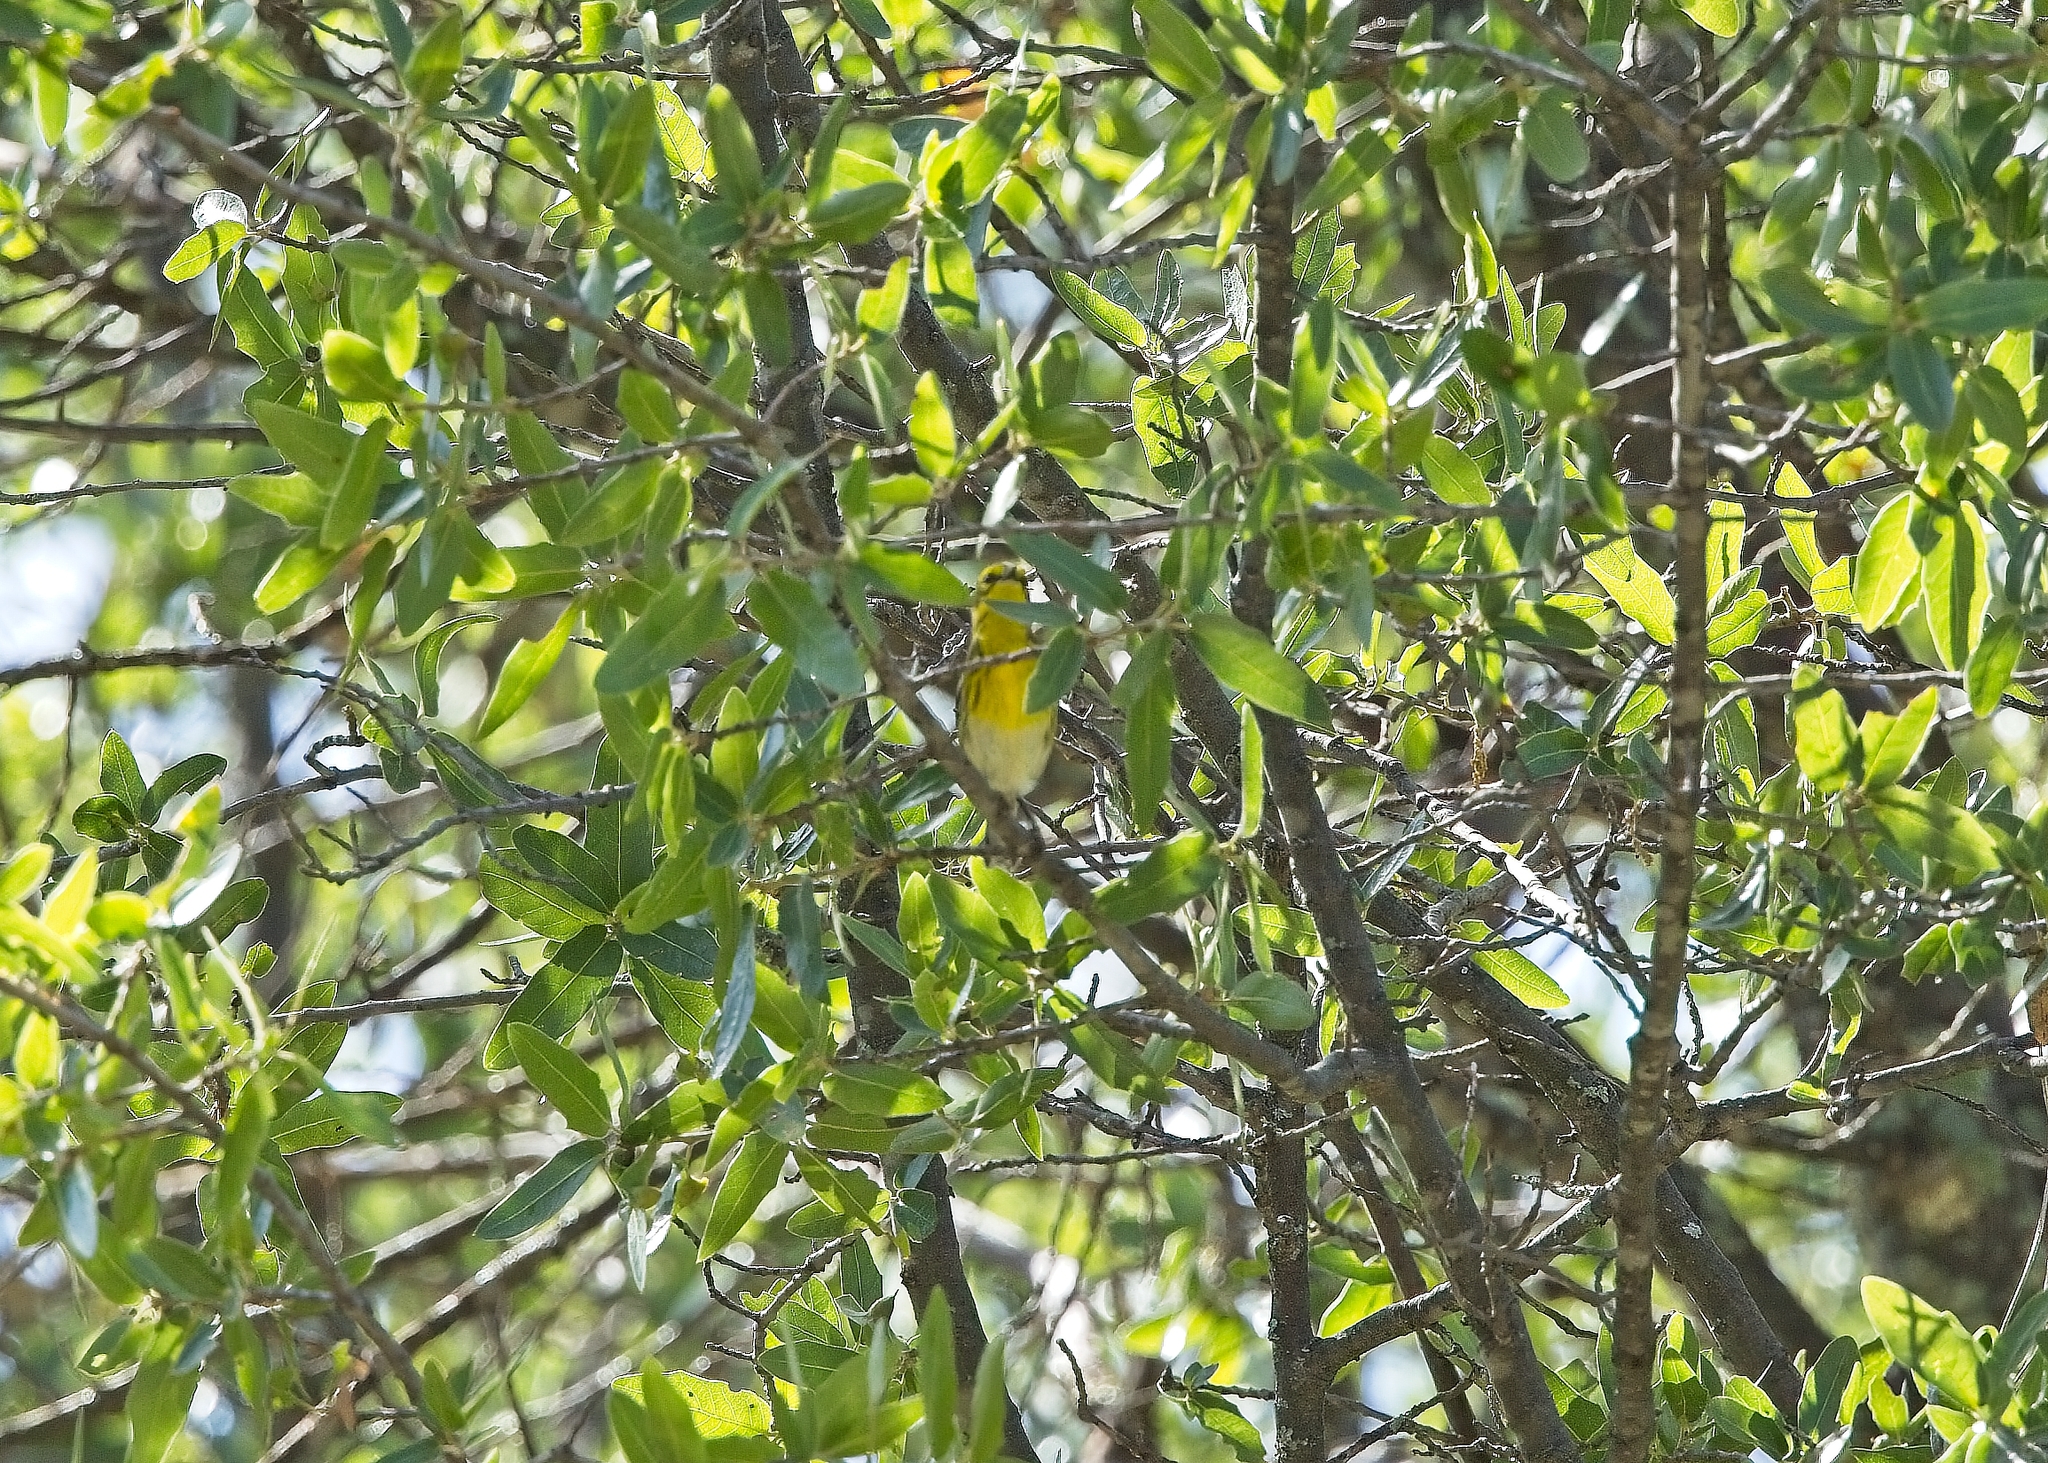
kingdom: Animalia
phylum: Chordata
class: Aves
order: Passeriformes
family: Parulidae
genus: Setophaga
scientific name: Setophaga townsendi
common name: Townsend's warbler
